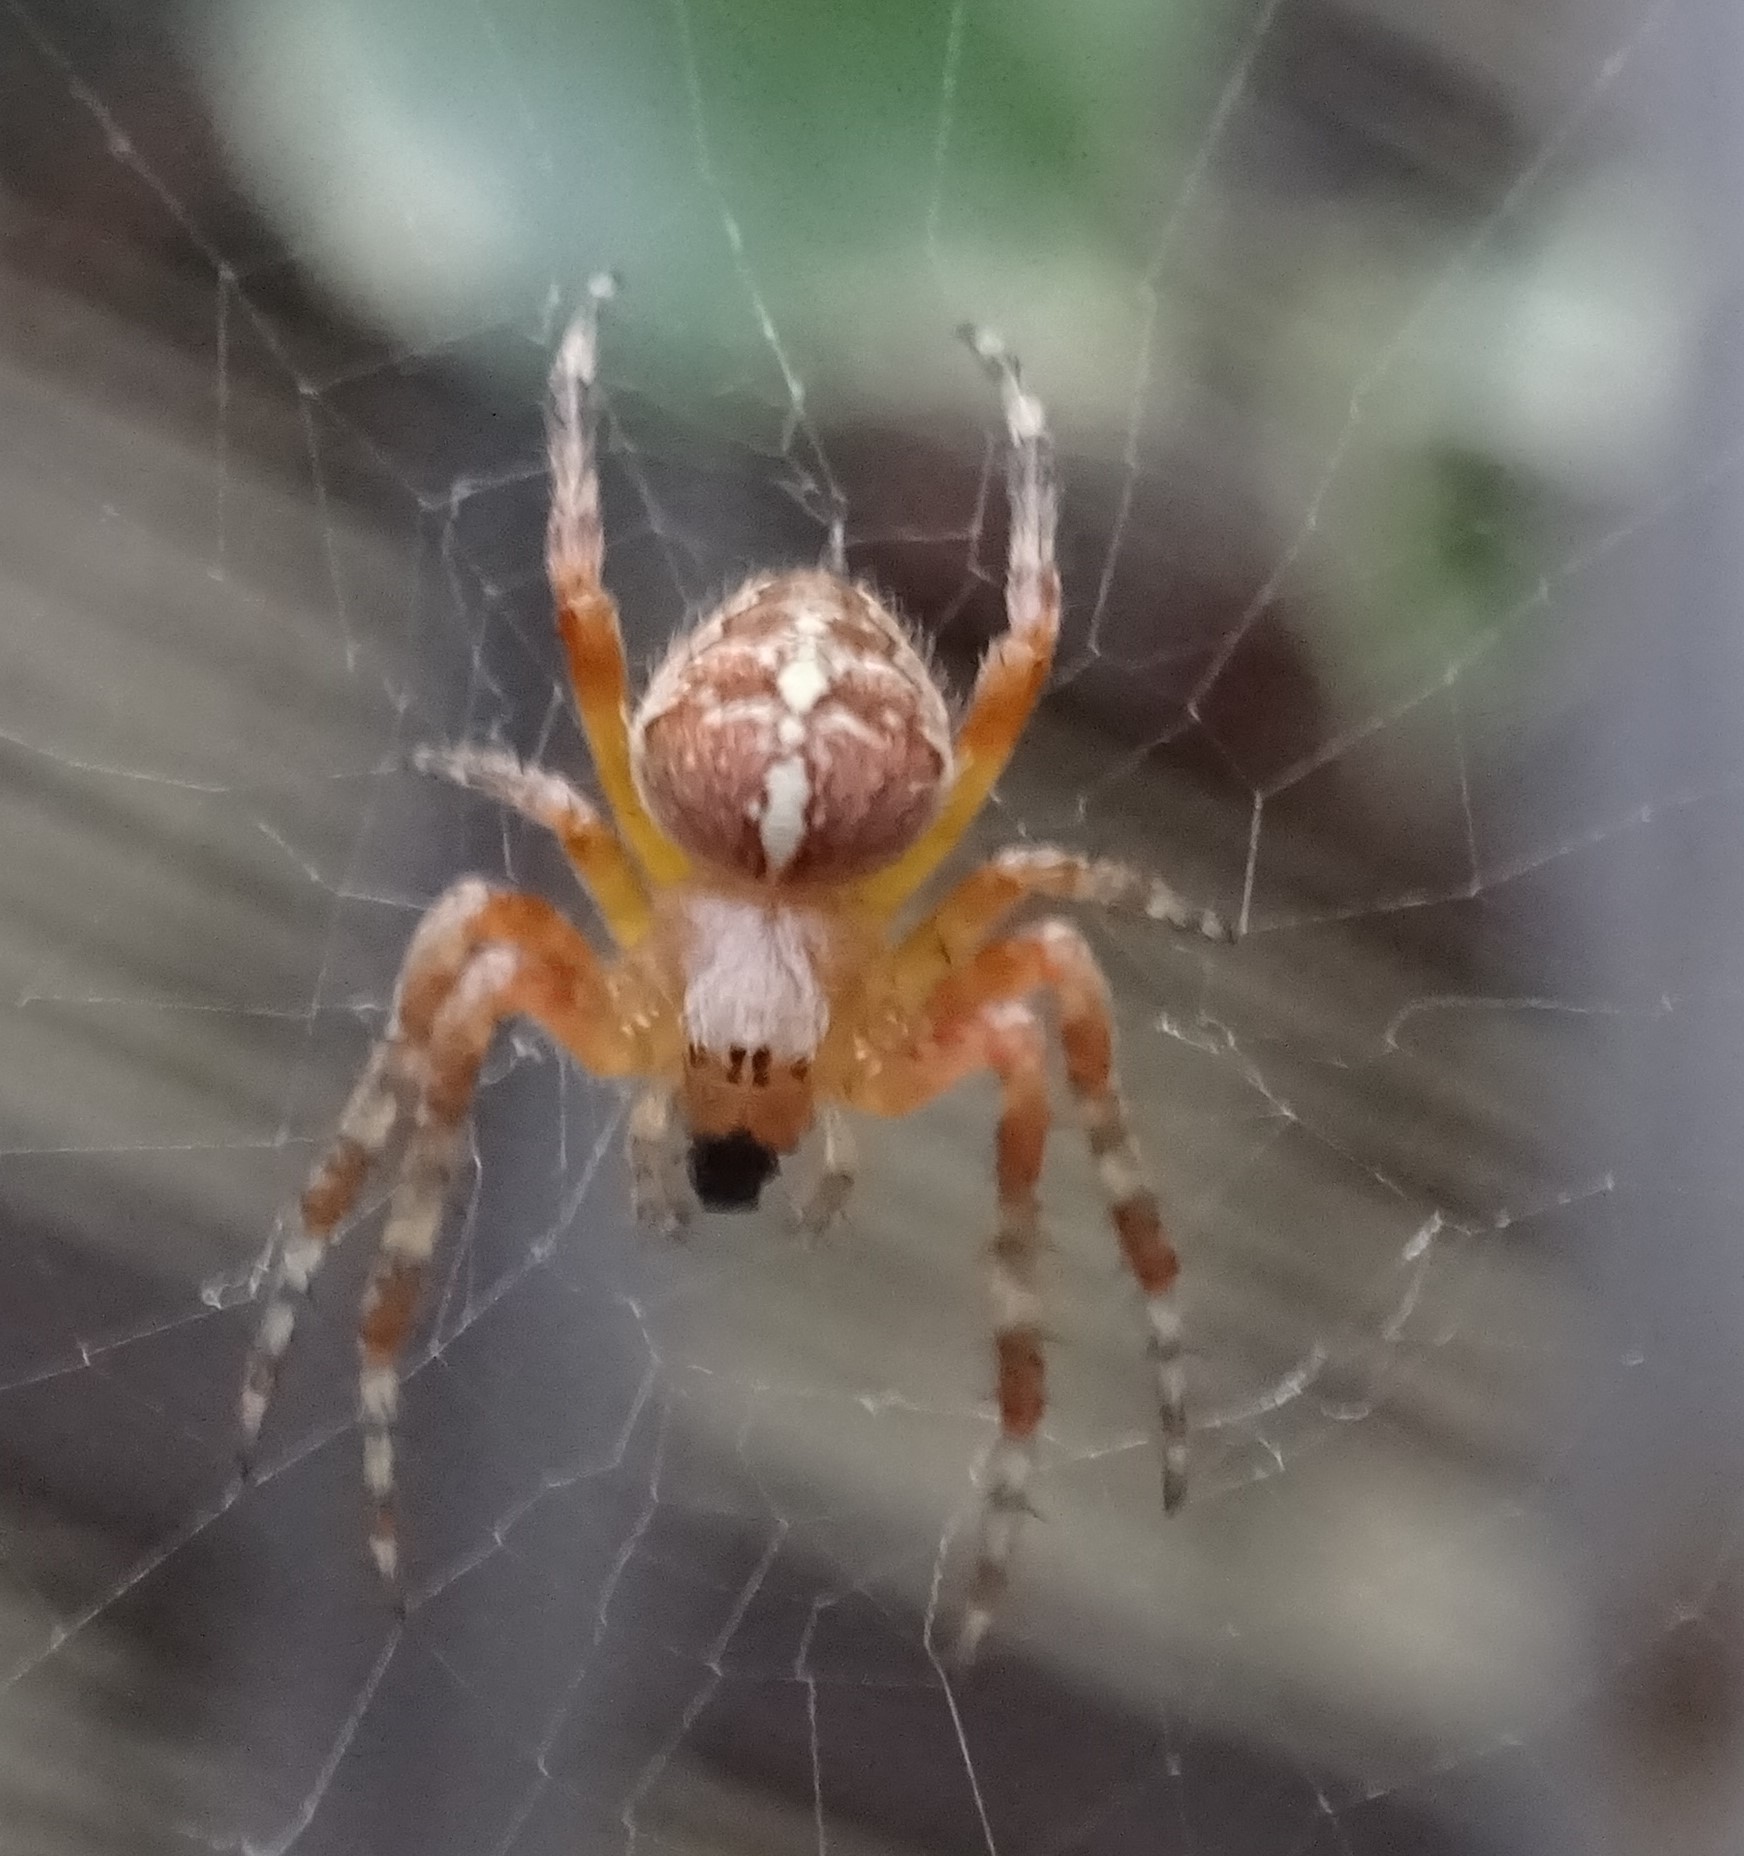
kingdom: Animalia
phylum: Arthropoda
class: Arachnida
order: Araneae
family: Araneidae
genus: Araneus
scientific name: Araneus diadematus
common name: Cross orbweaver
